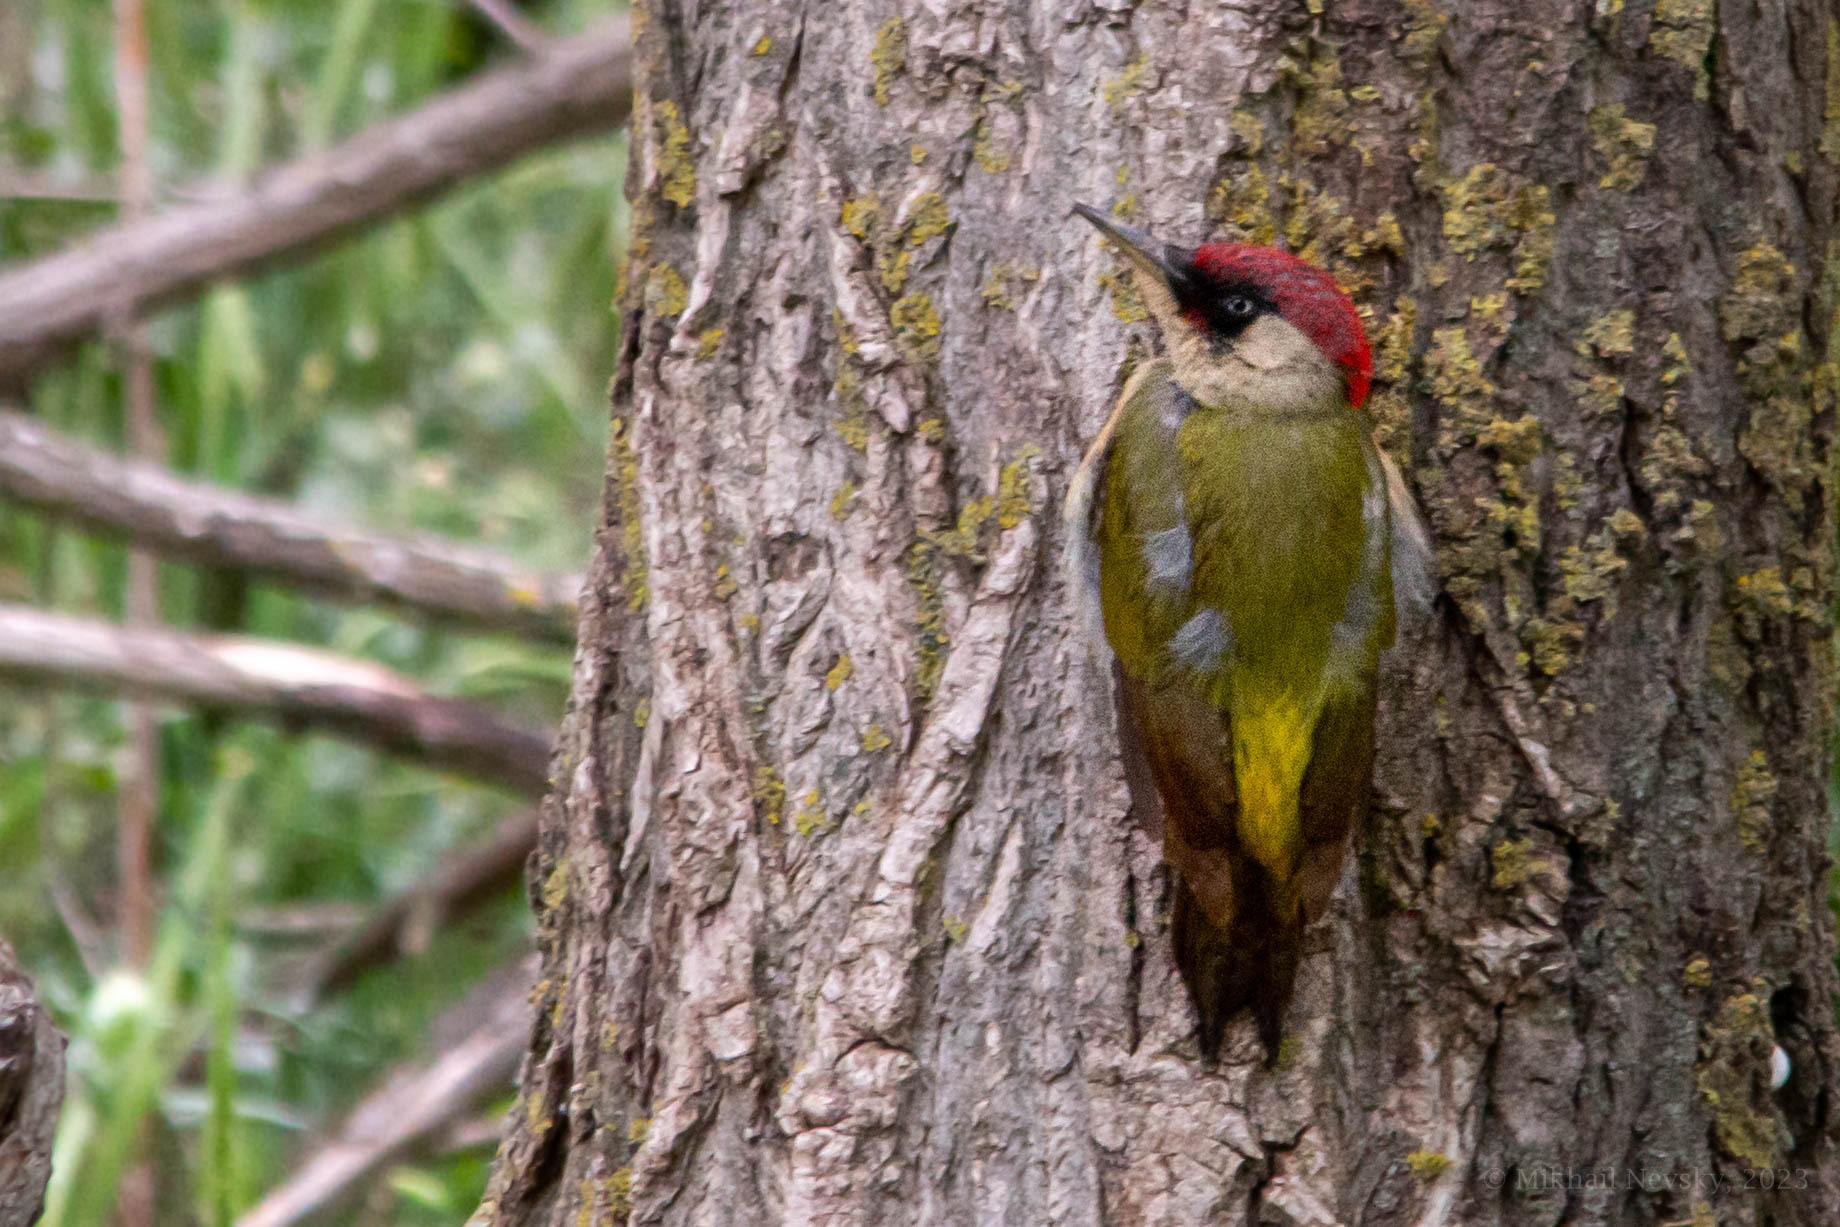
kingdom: Animalia
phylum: Chordata
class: Aves
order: Piciformes
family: Picidae
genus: Picus
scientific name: Picus viridis
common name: European green woodpecker
